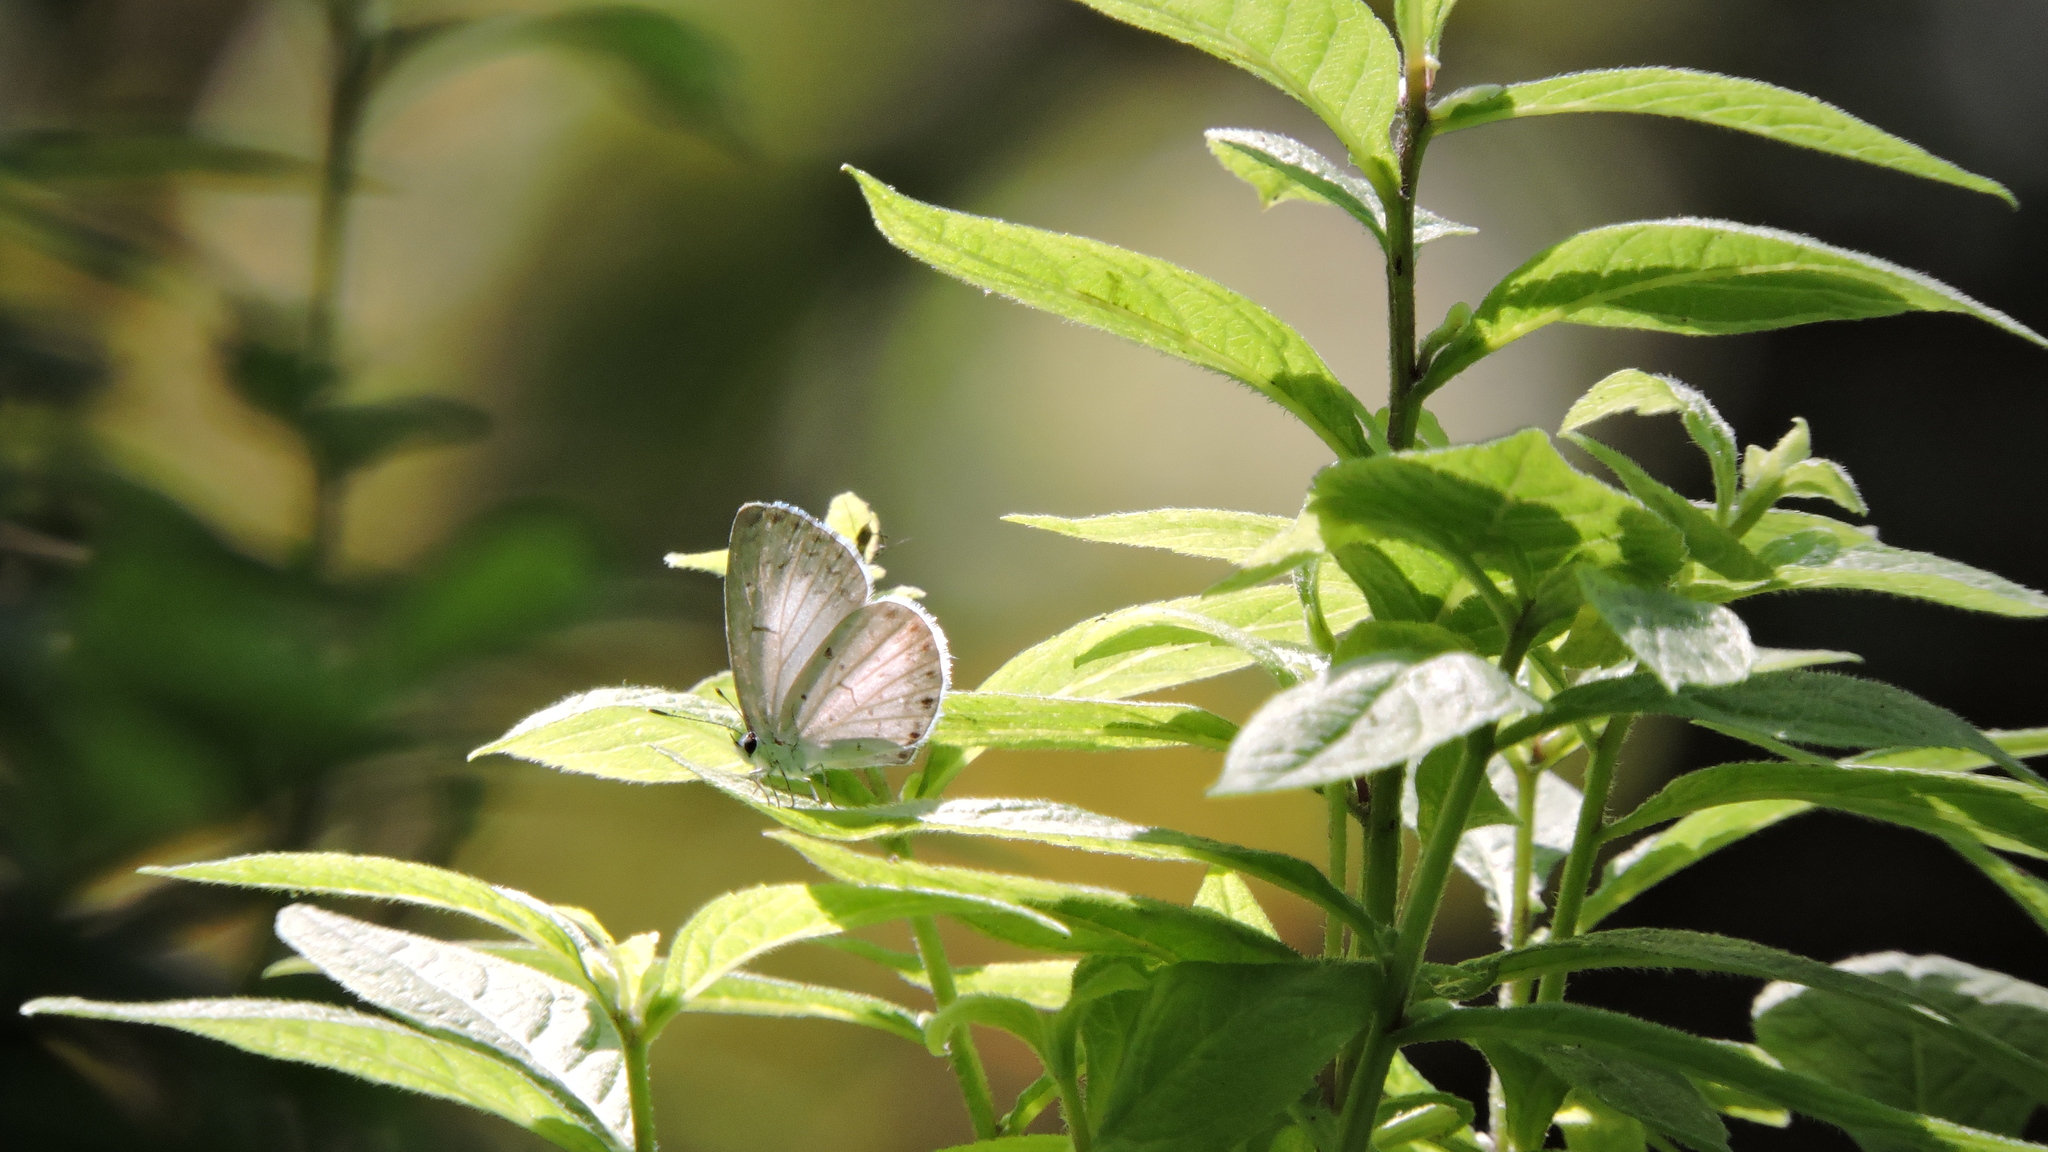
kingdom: Animalia
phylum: Arthropoda
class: Insecta
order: Lepidoptera
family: Lycaenidae
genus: Cyaniris
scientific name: Cyaniris neglecta
